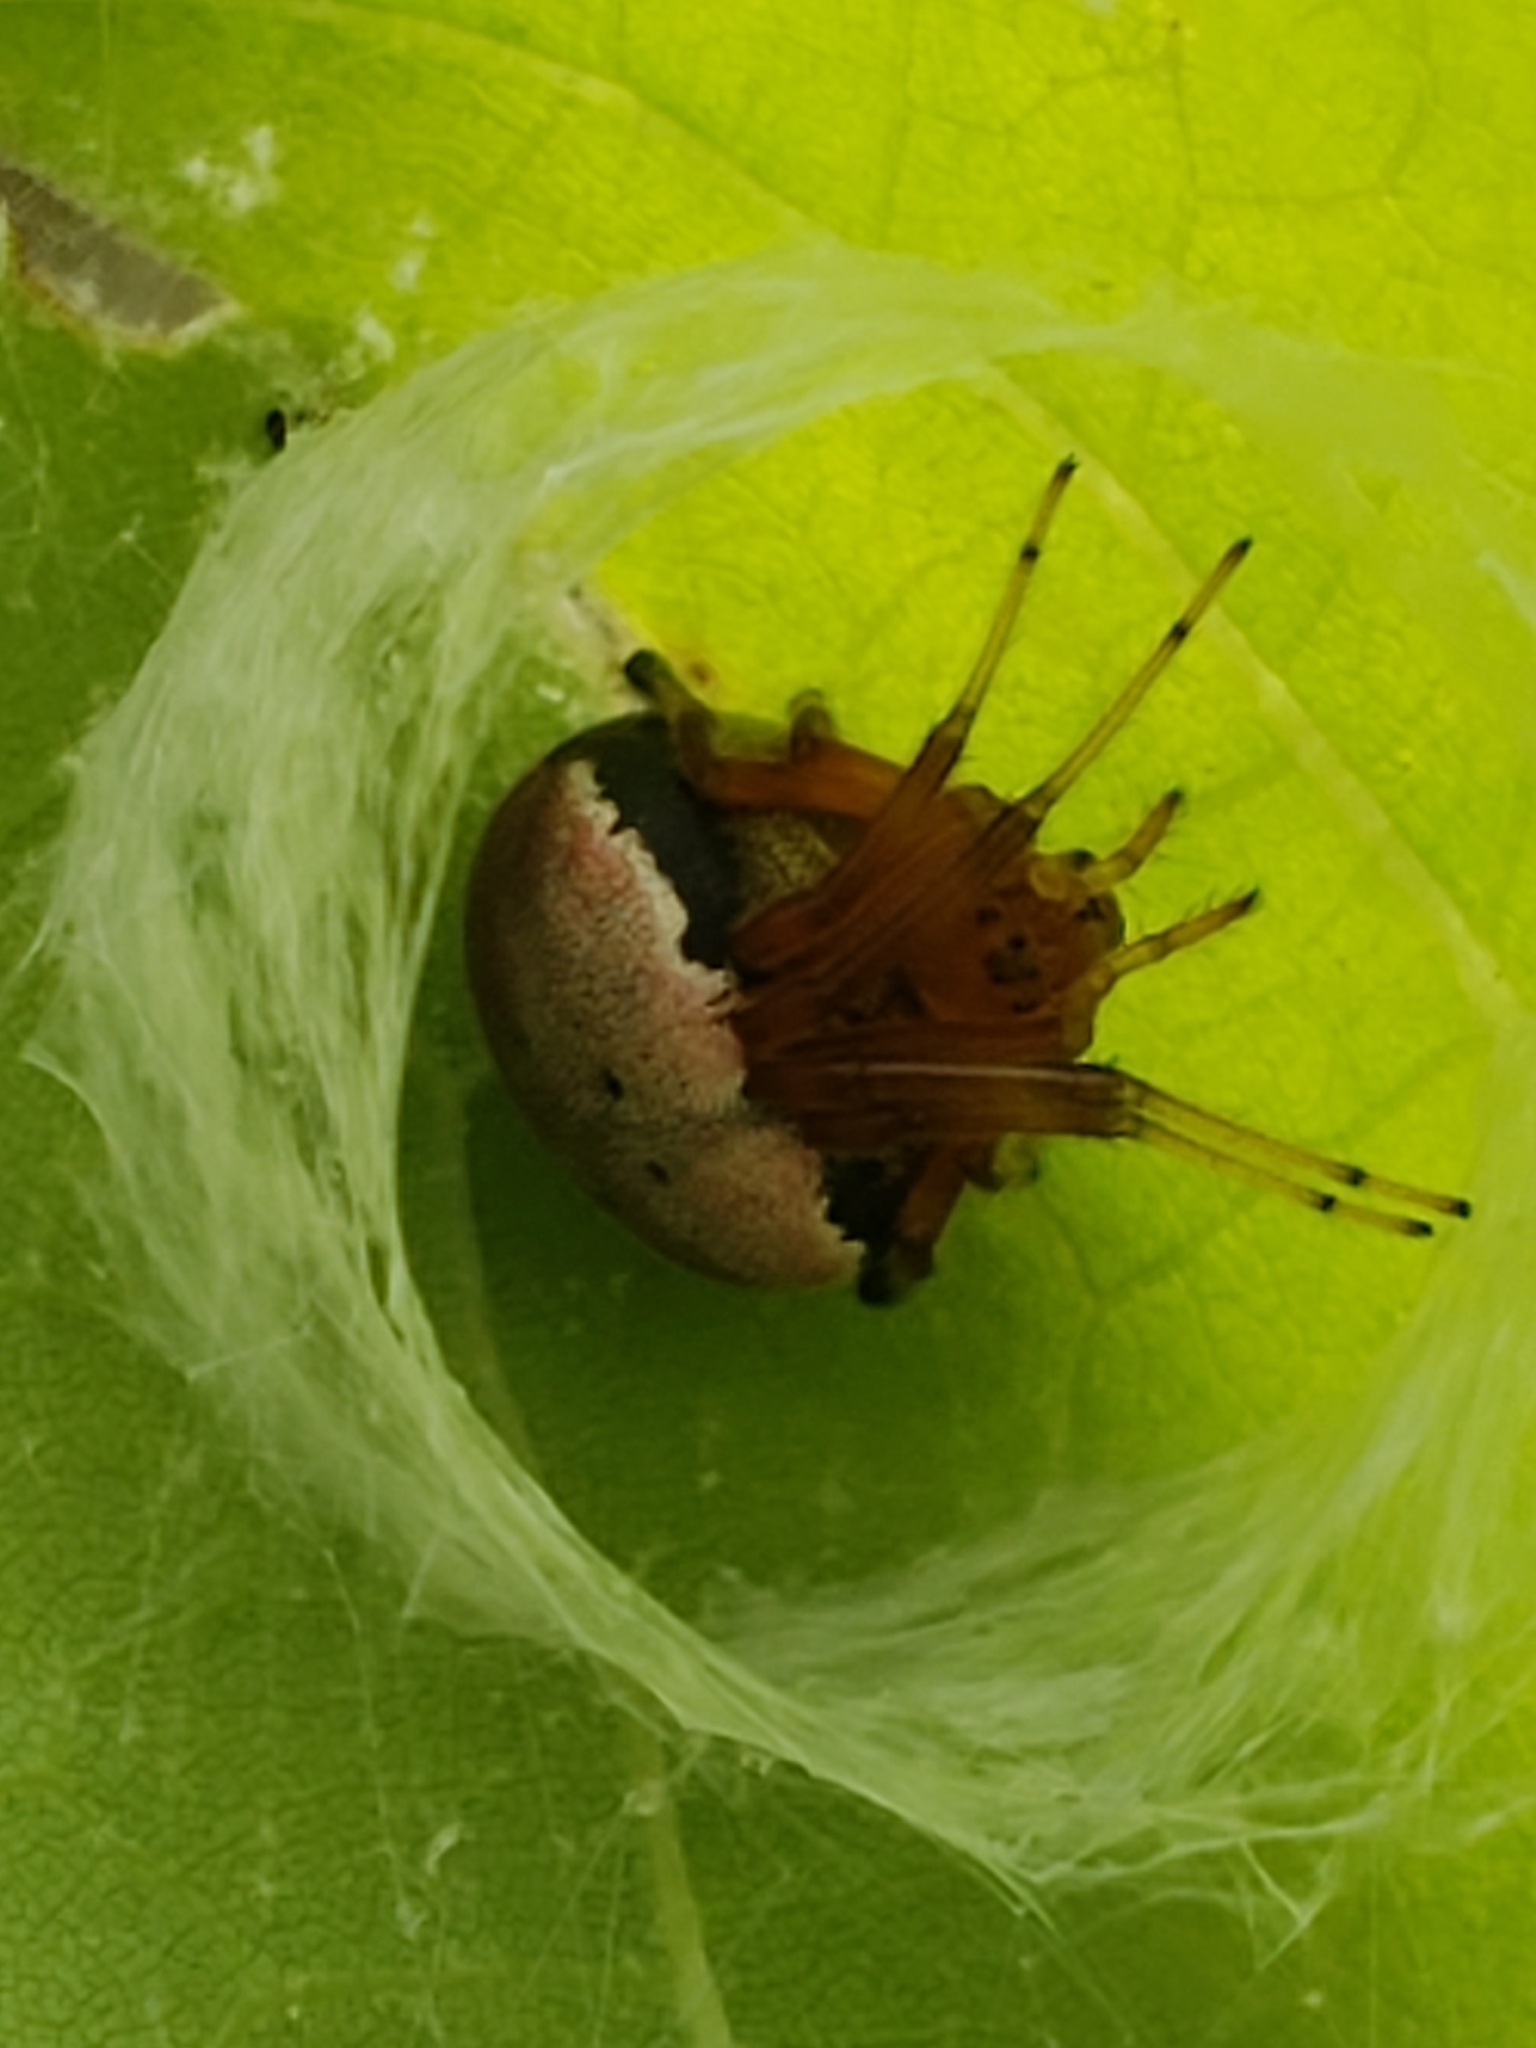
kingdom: Animalia
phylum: Arthropoda
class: Arachnida
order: Araneae
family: Araneidae
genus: Araneus
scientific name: Araneus thaddeus
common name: Lattice orbweaver
